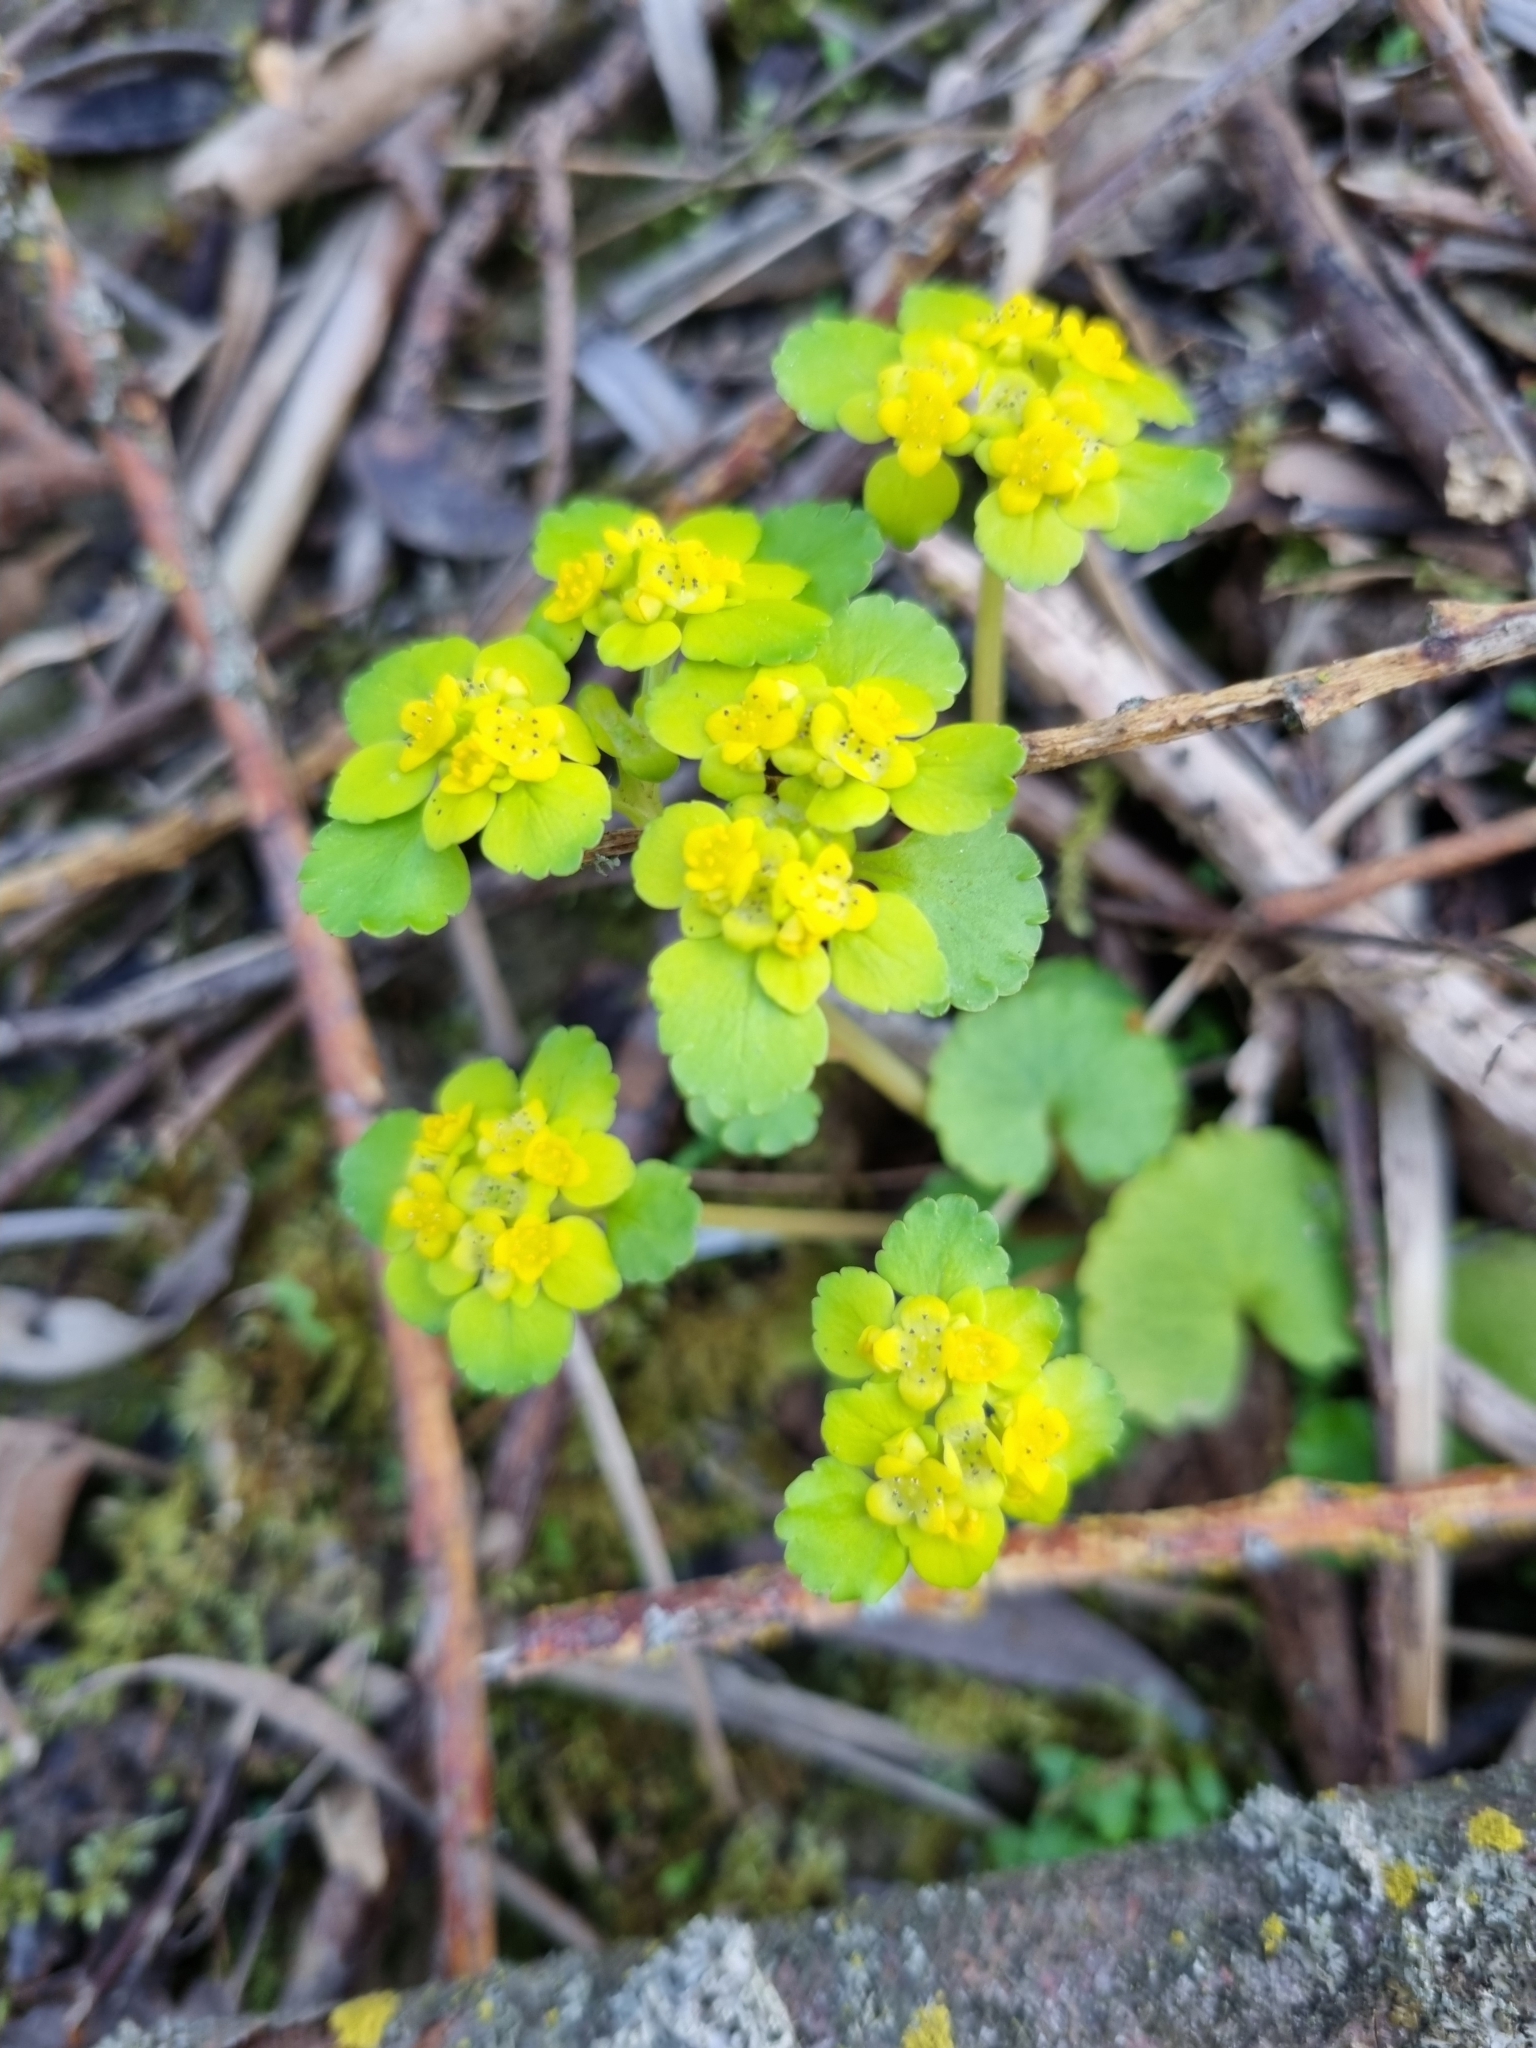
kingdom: Plantae
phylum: Tracheophyta
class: Magnoliopsida
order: Saxifragales
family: Saxifragaceae
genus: Chrysosplenium
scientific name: Chrysosplenium alternifolium
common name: Alternate-leaved golden-saxifrage
